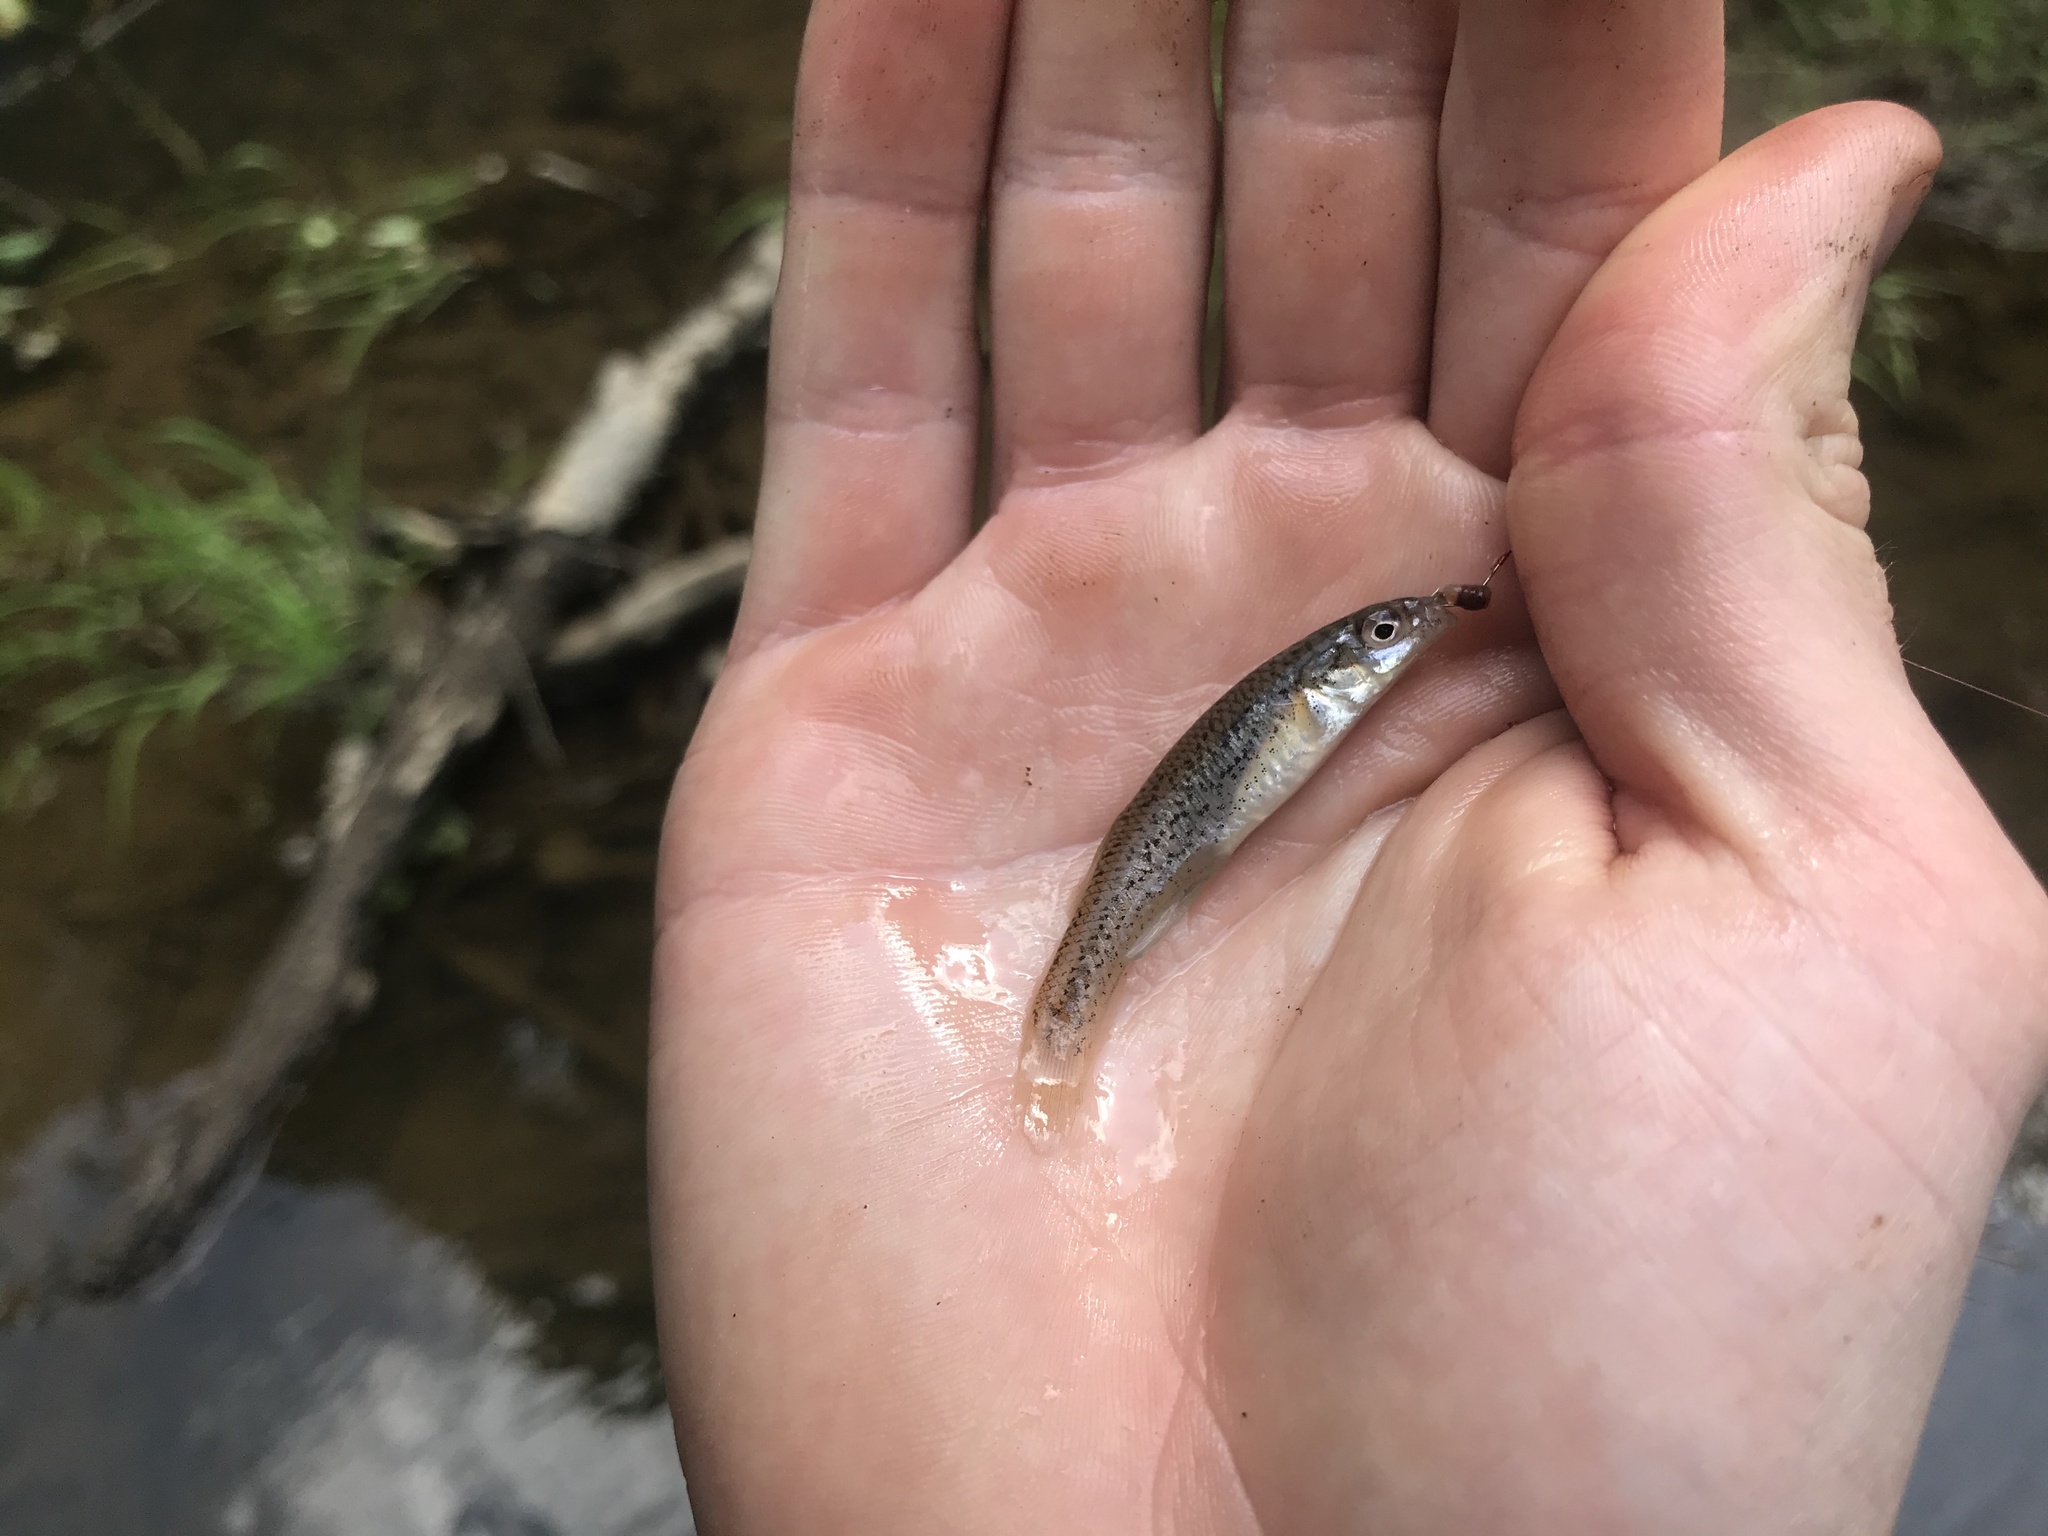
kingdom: Animalia
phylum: Chordata
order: Cyprinodontiformes
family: Fundulidae
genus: Fundulus
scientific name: Fundulus rathbuni
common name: Speckled killifish
